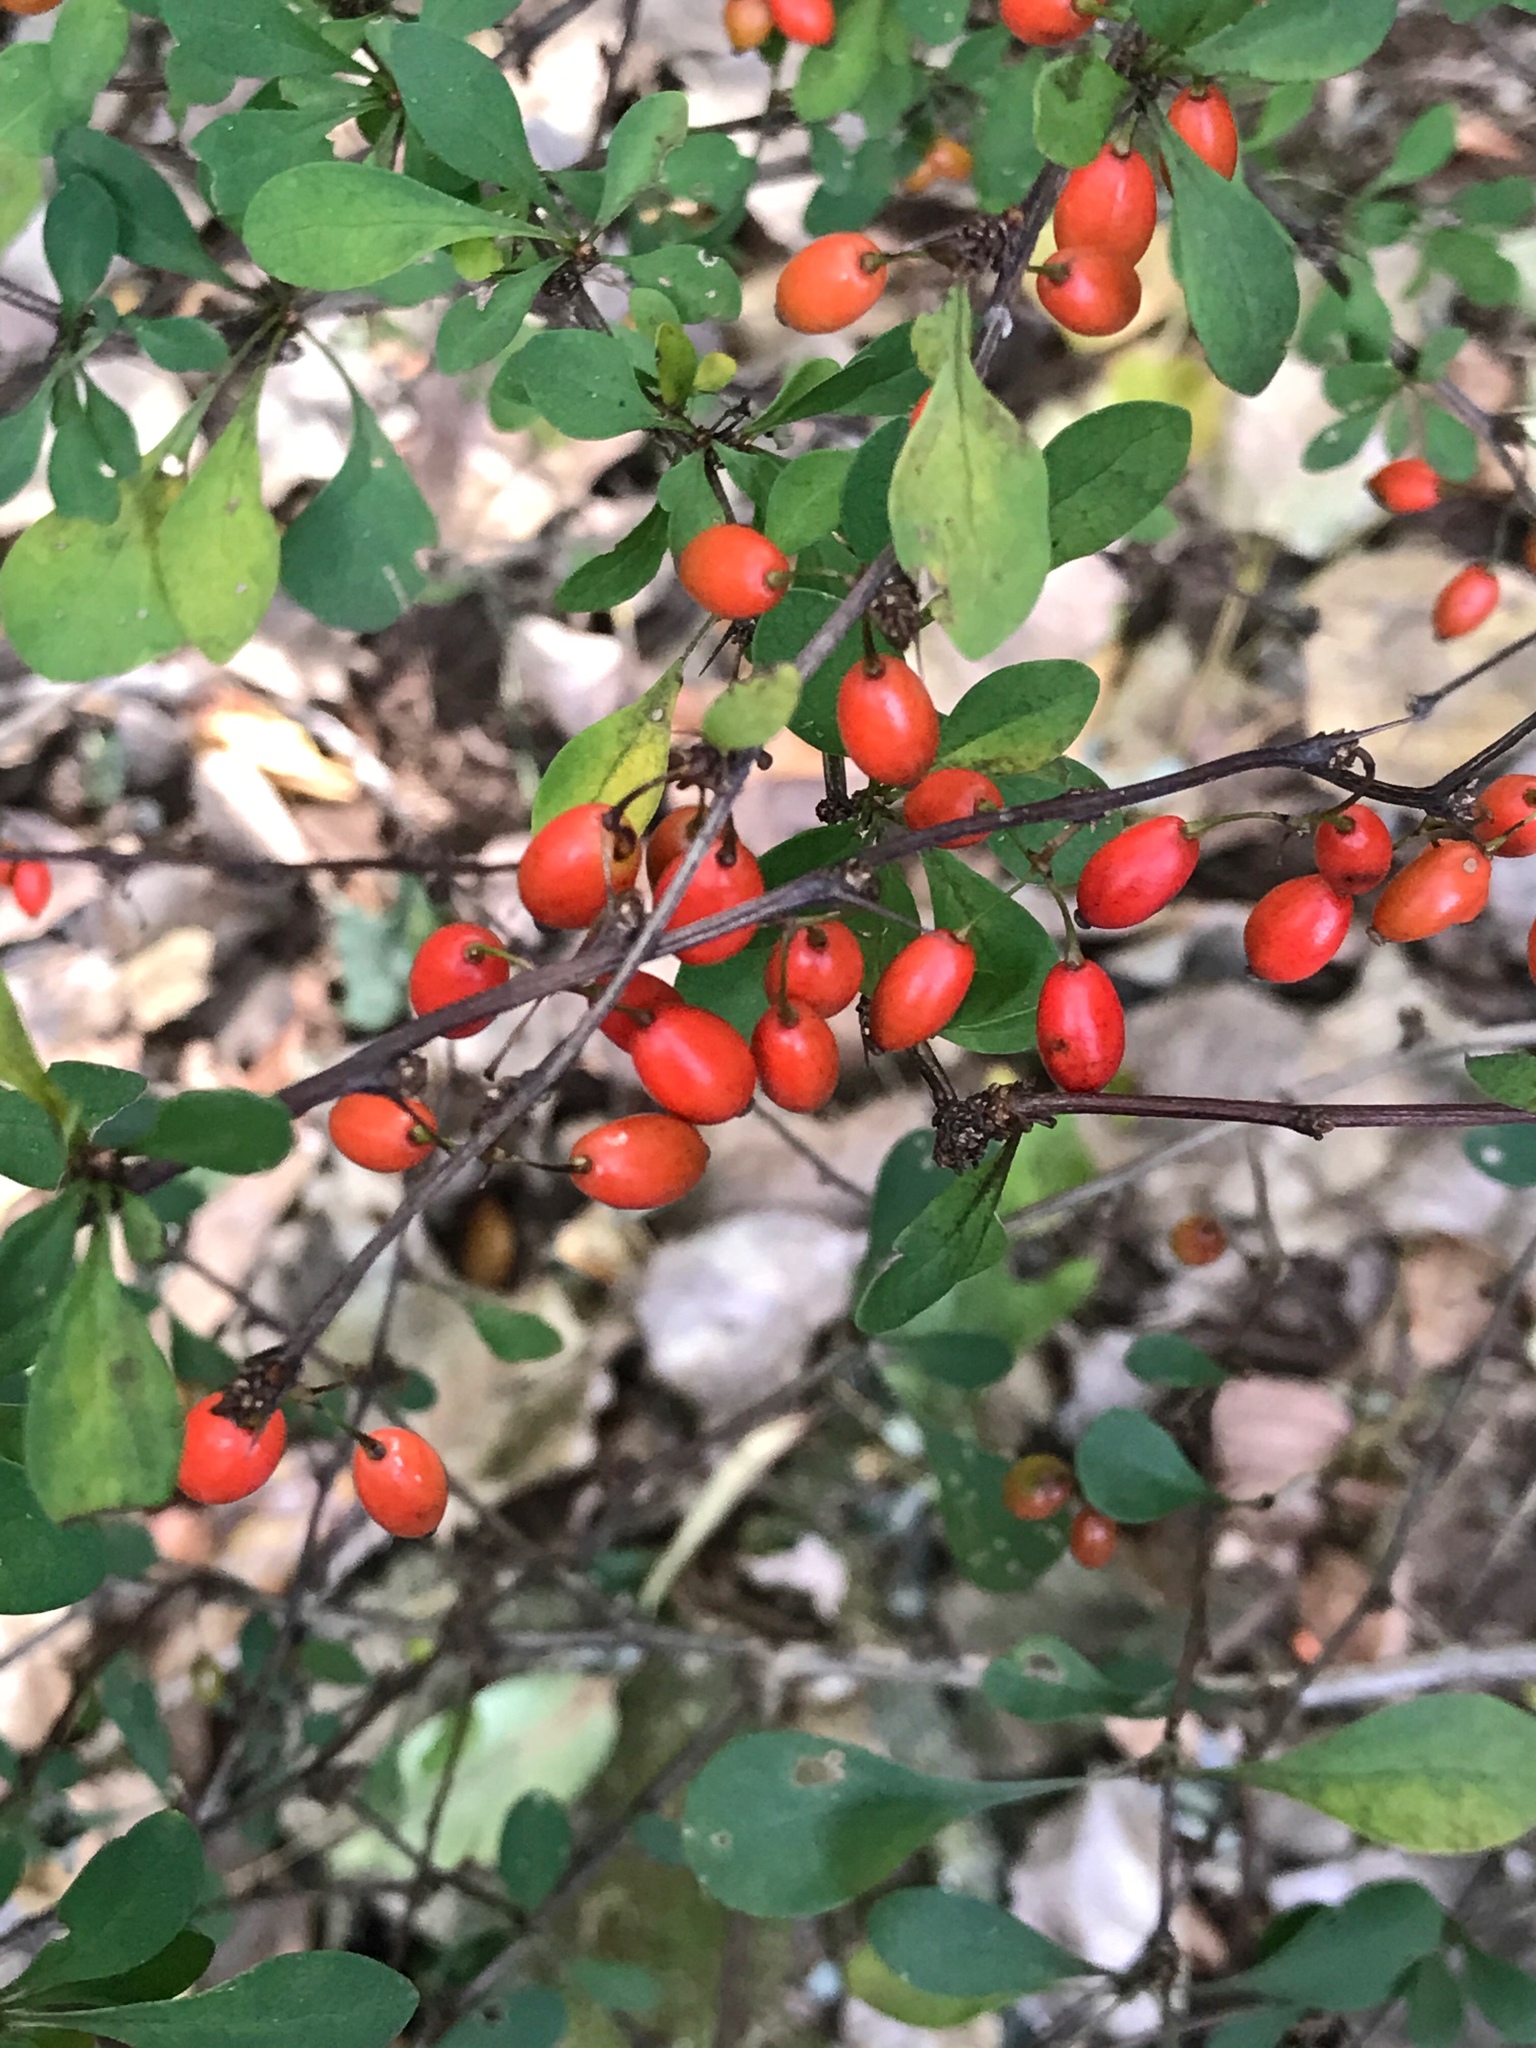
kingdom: Plantae
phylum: Tracheophyta
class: Magnoliopsida
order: Ranunculales
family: Berberidaceae
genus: Berberis
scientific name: Berberis thunbergii
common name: Japanese barberry
